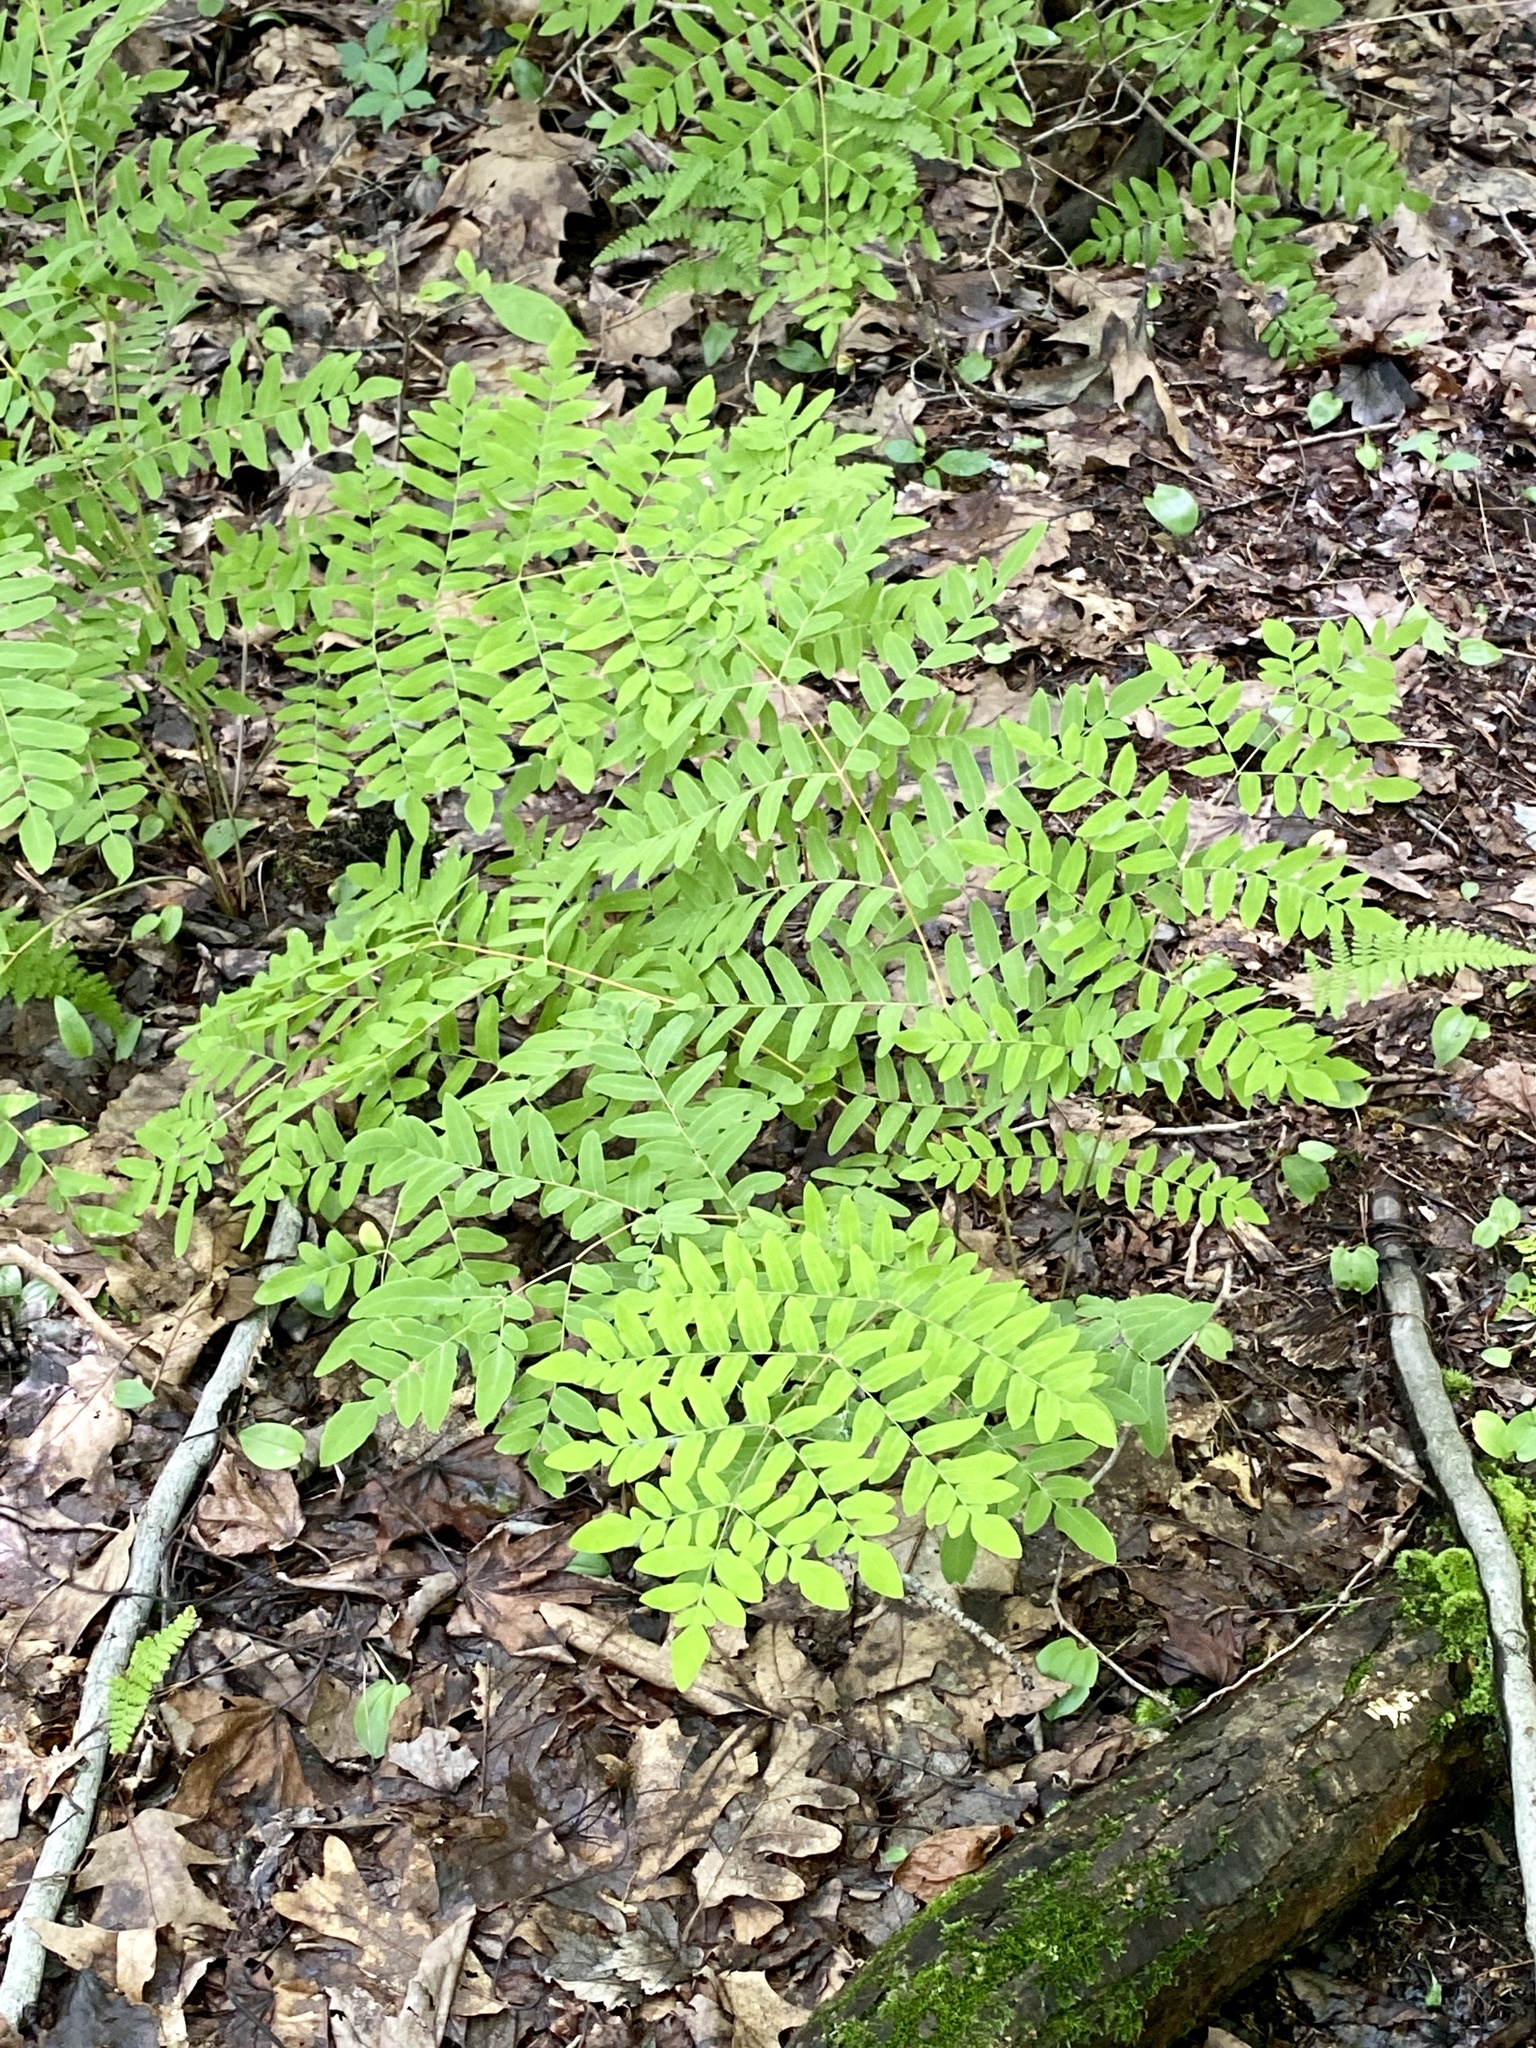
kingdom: Plantae
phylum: Tracheophyta
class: Polypodiopsida
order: Osmundales
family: Osmundaceae
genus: Osmunda
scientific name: Osmunda spectabilis
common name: American royal fern
